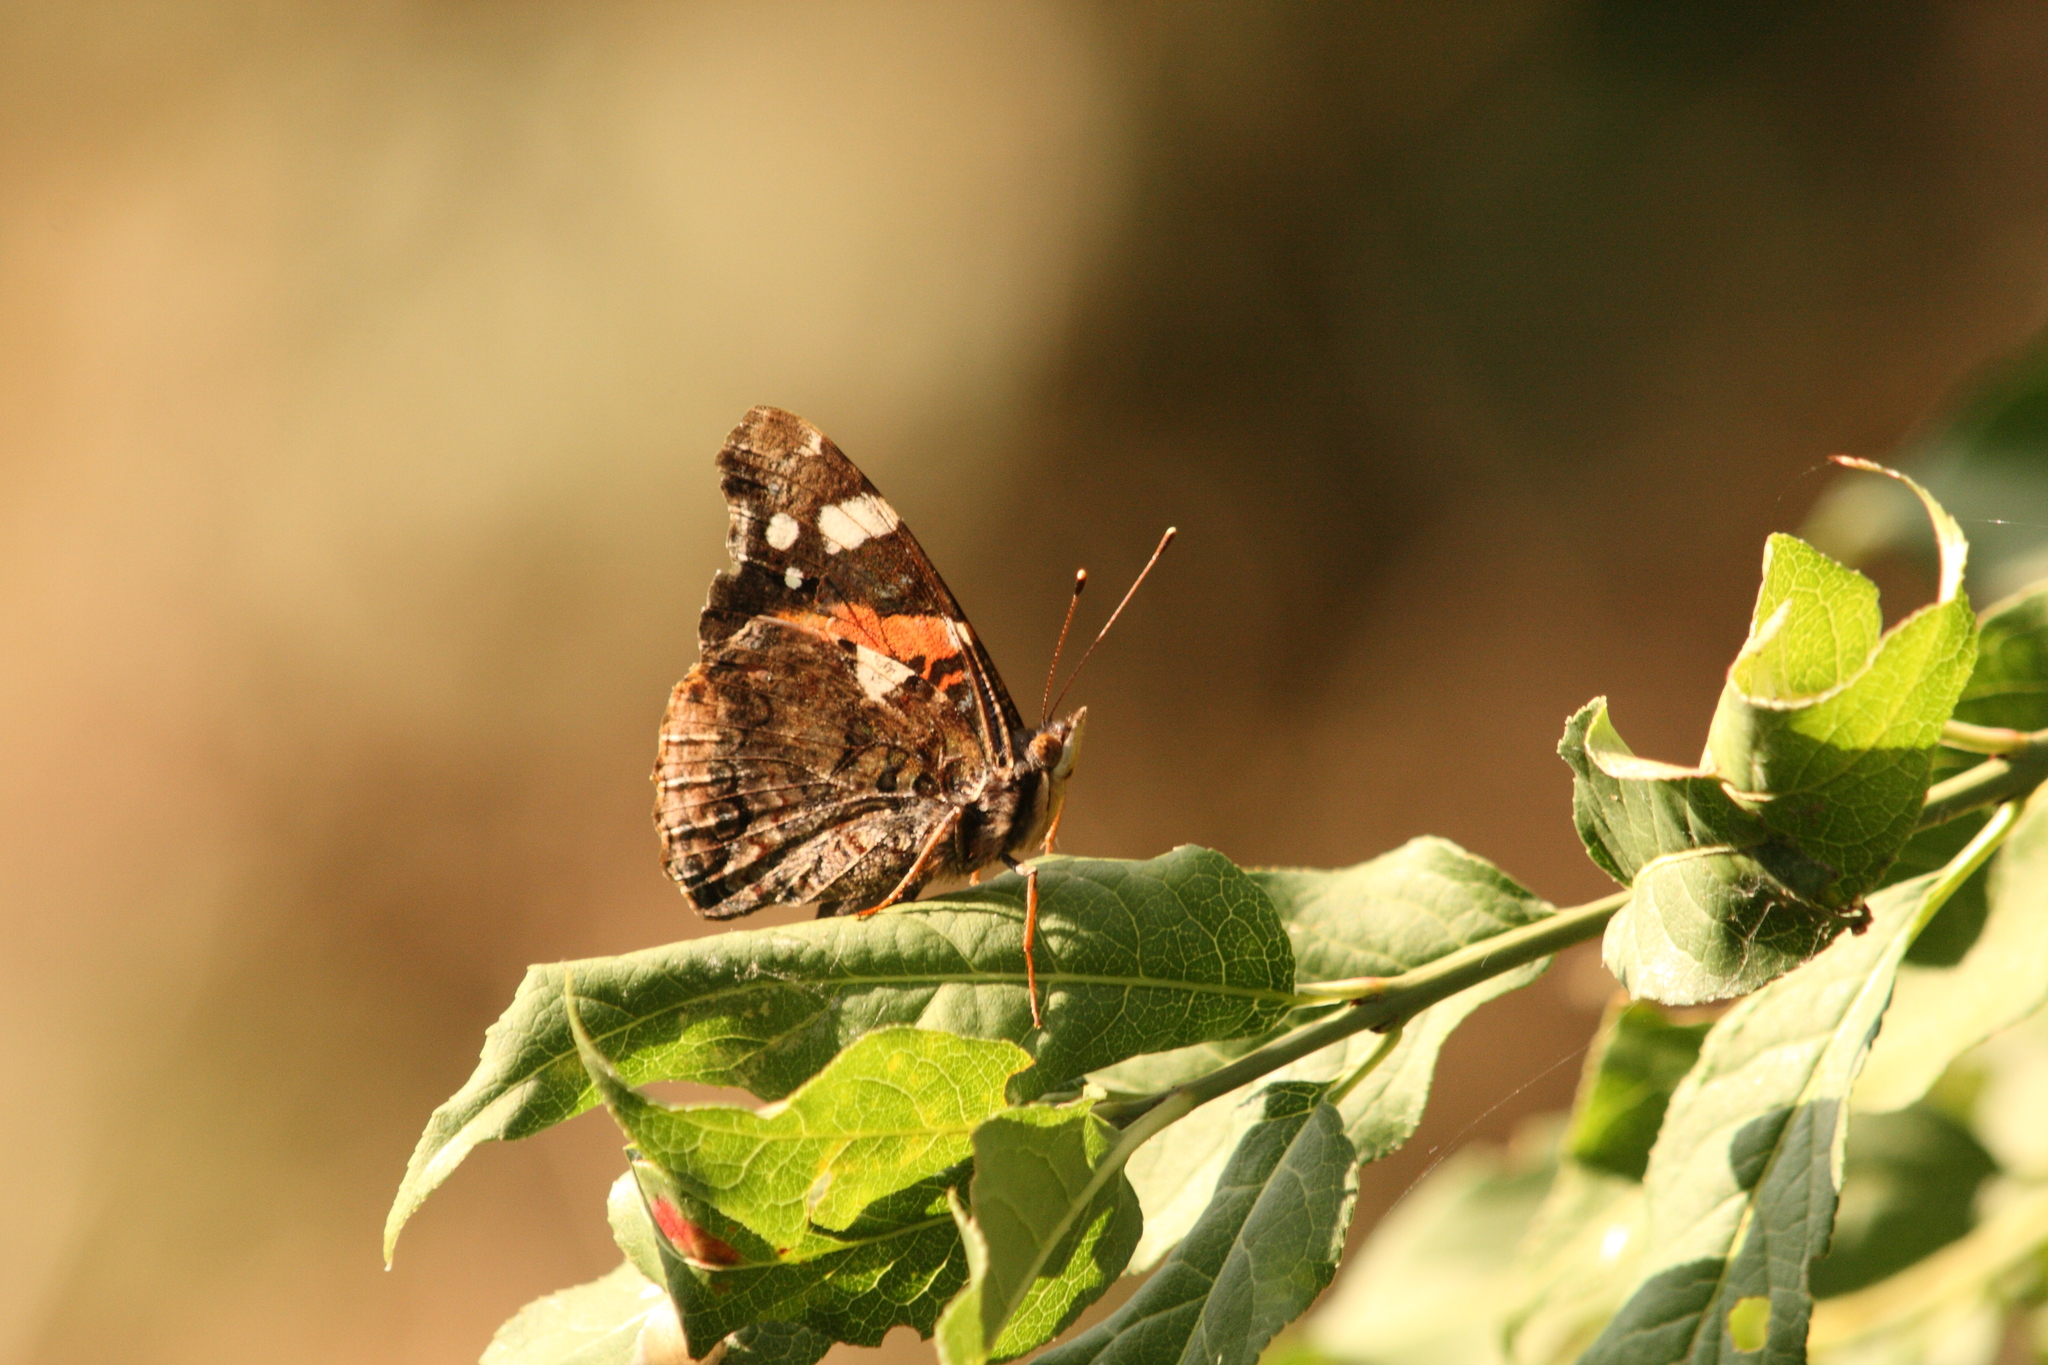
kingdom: Animalia
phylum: Arthropoda
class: Insecta
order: Lepidoptera
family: Nymphalidae
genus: Vanessa
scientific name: Vanessa atalanta
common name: Red admiral
